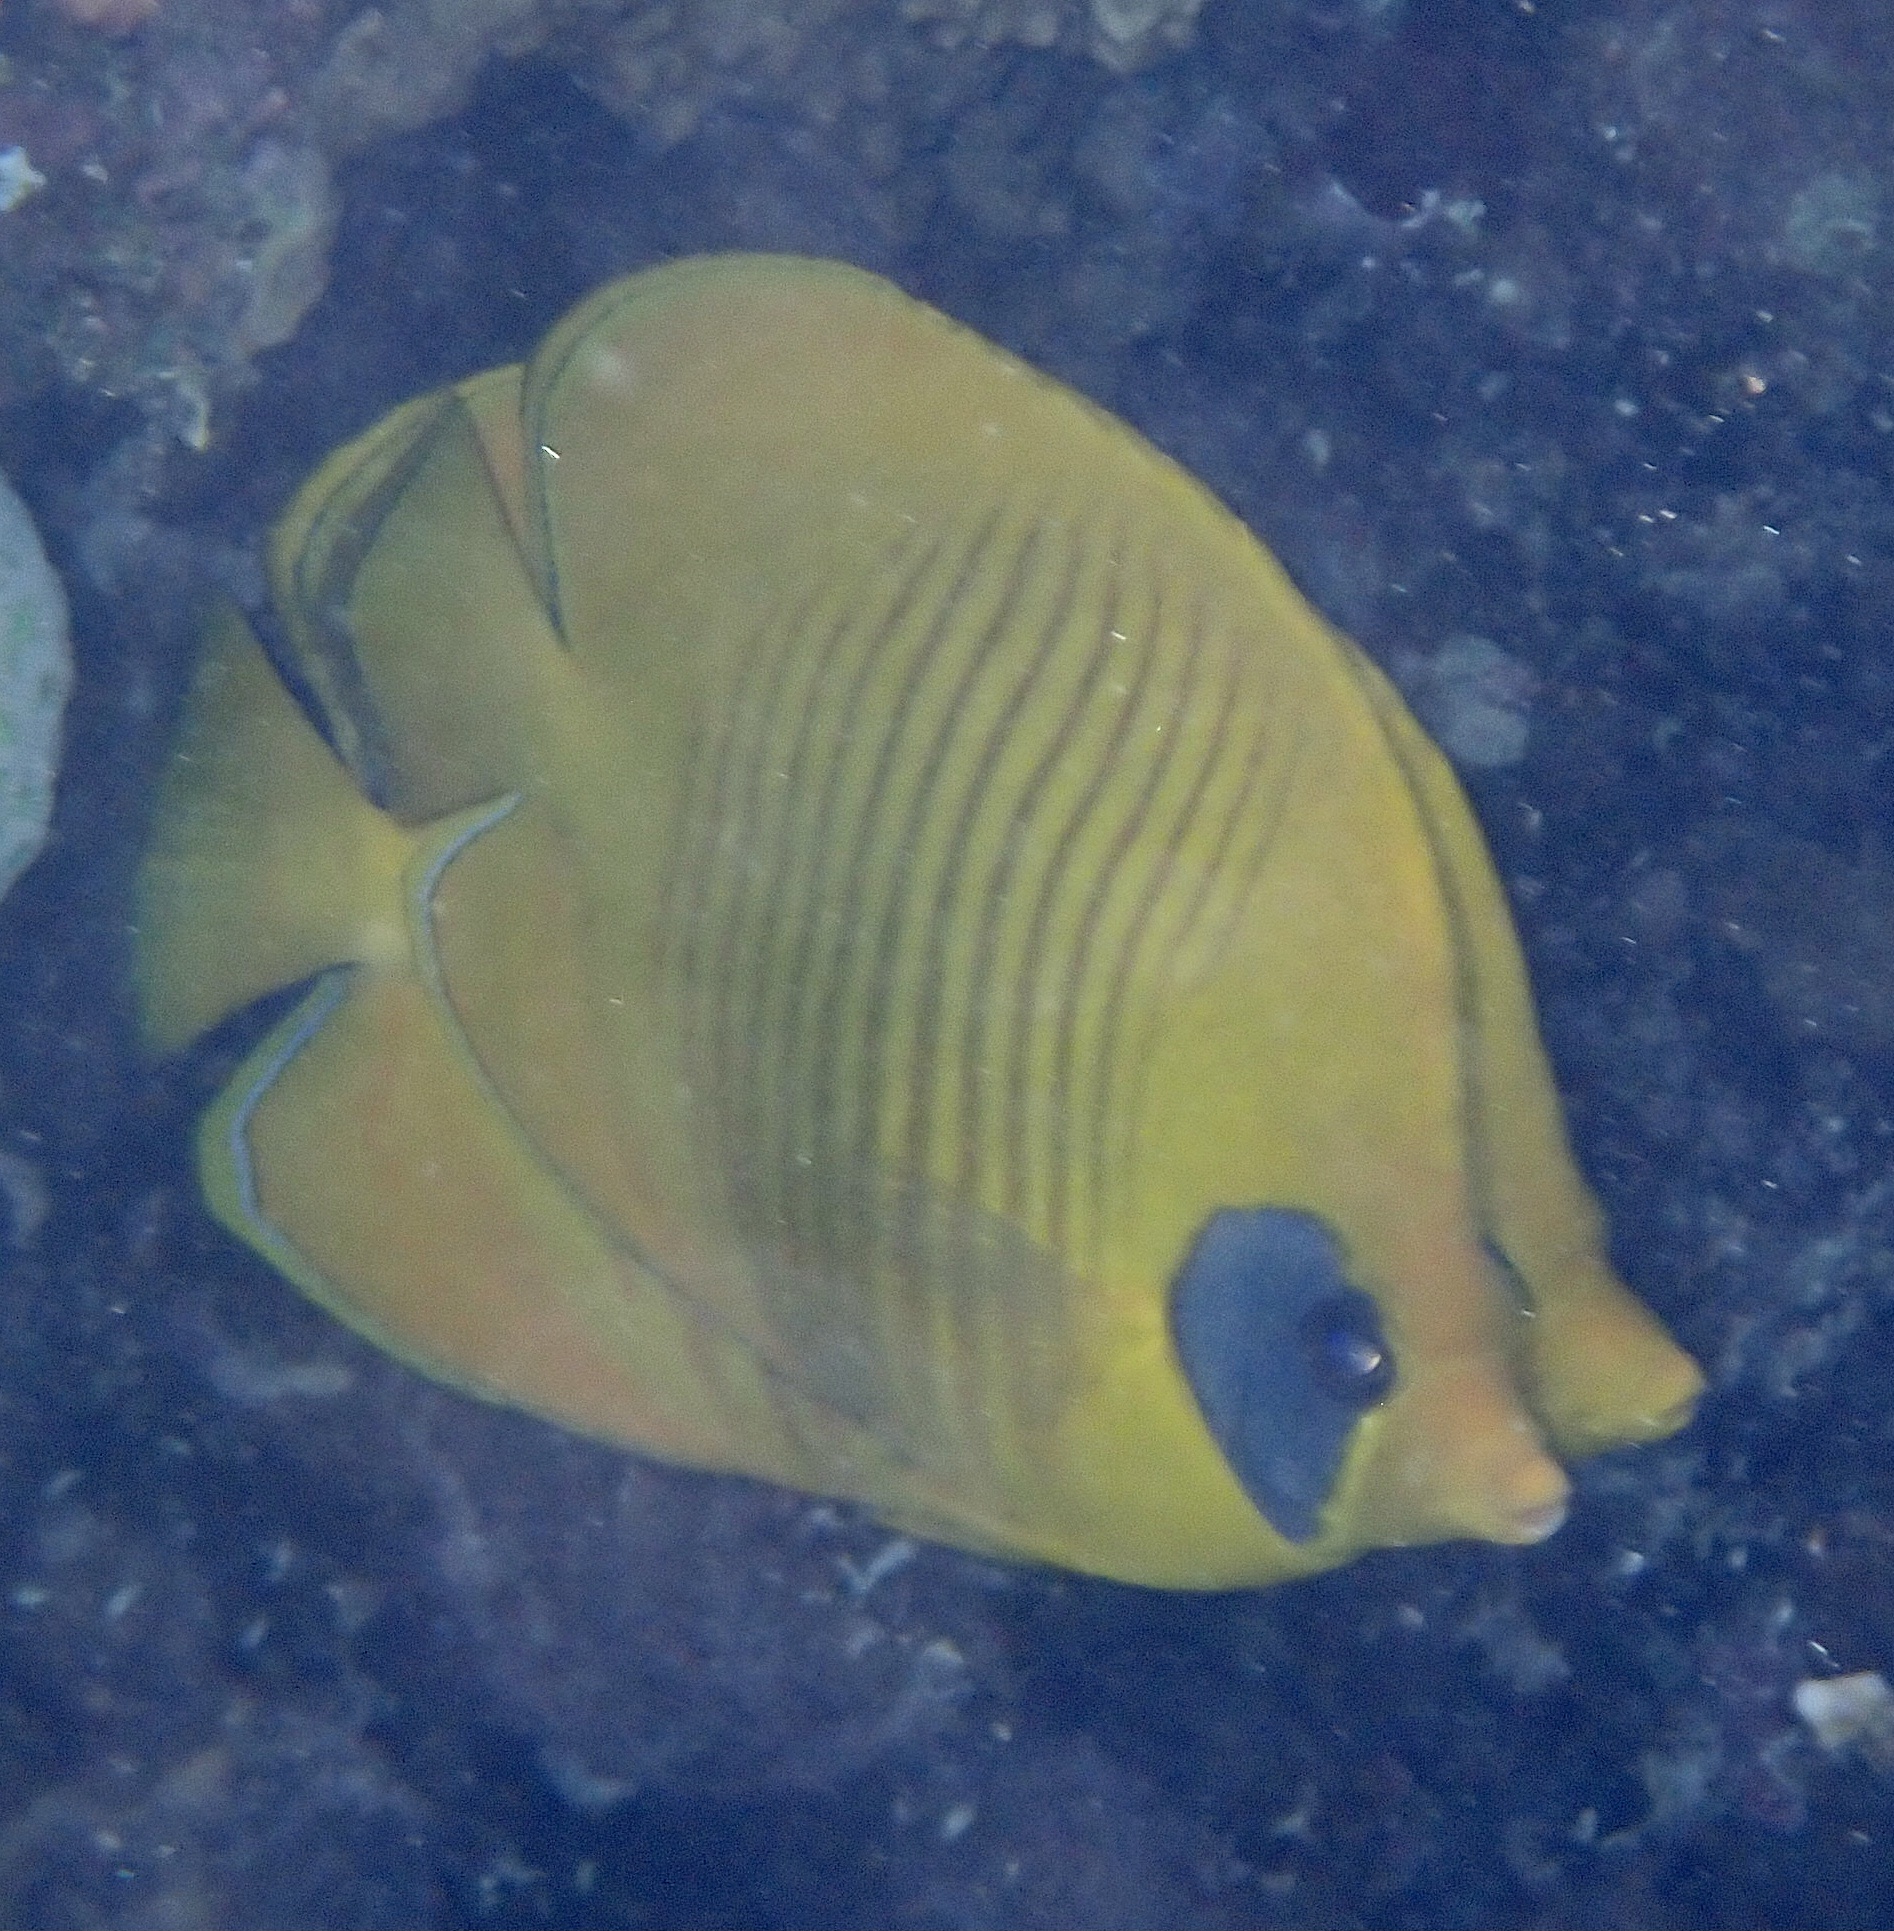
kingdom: Animalia
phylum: Chordata
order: Perciformes
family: Chaetodontidae
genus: Chaetodon
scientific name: Chaetodon semilarvatus
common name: Golden butterflyfish
